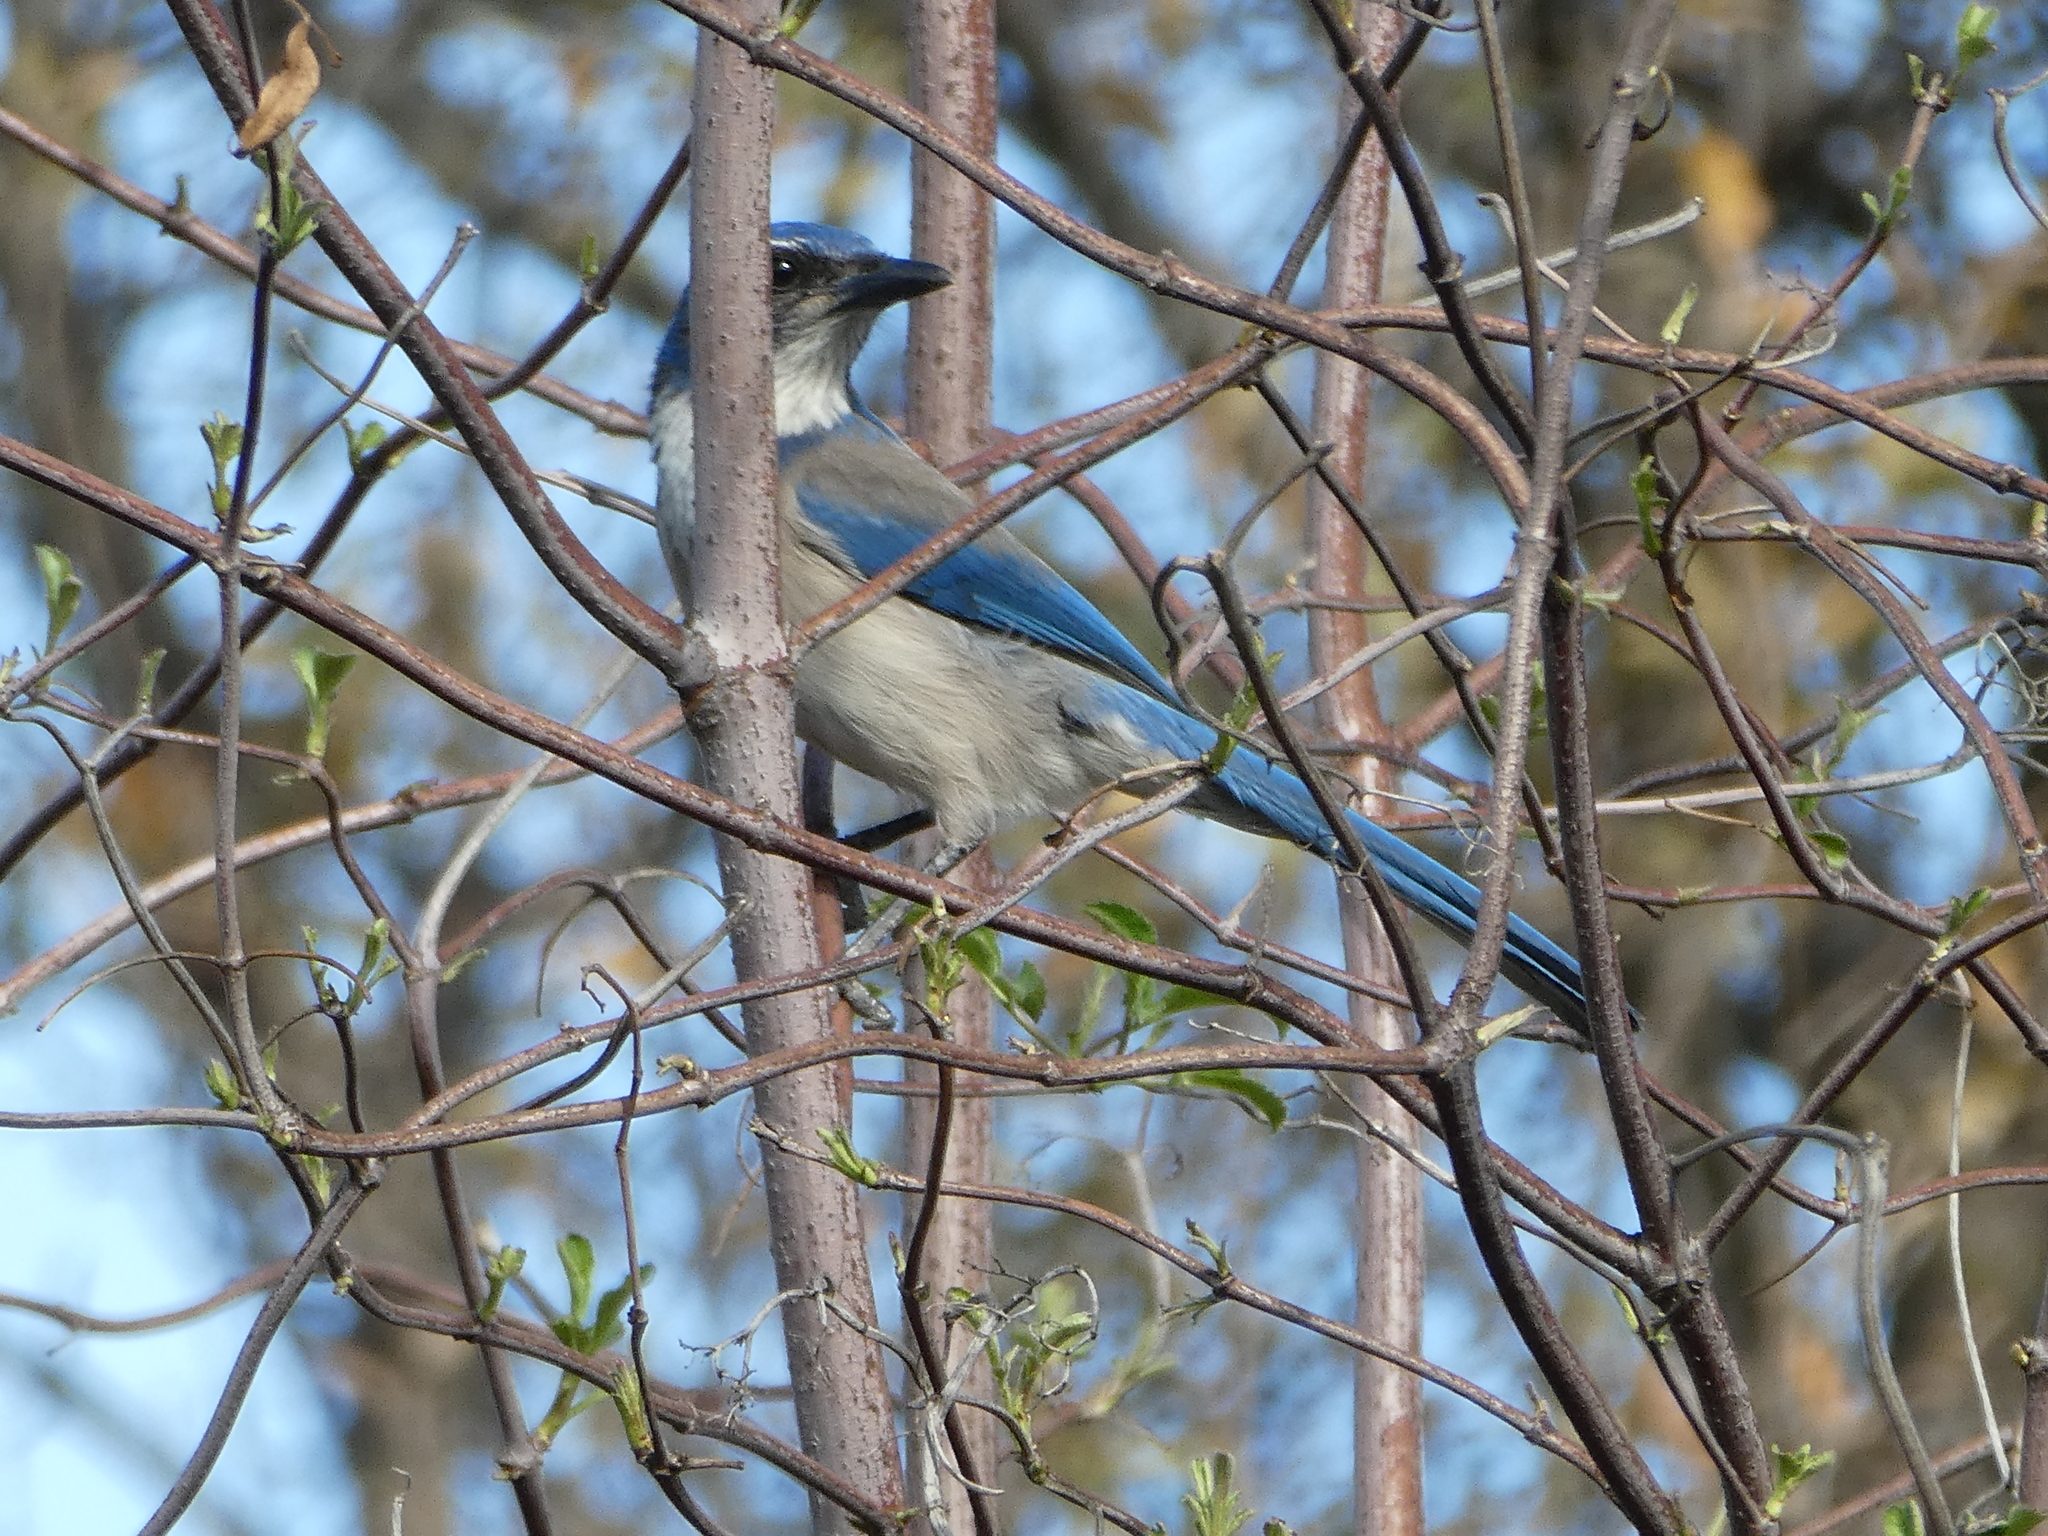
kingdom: Animalia
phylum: Chordata
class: Aves
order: Passeriformes
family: Corvidae
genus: Aphelocoma
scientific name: Aphelocoma californica
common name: California scrub-jay
